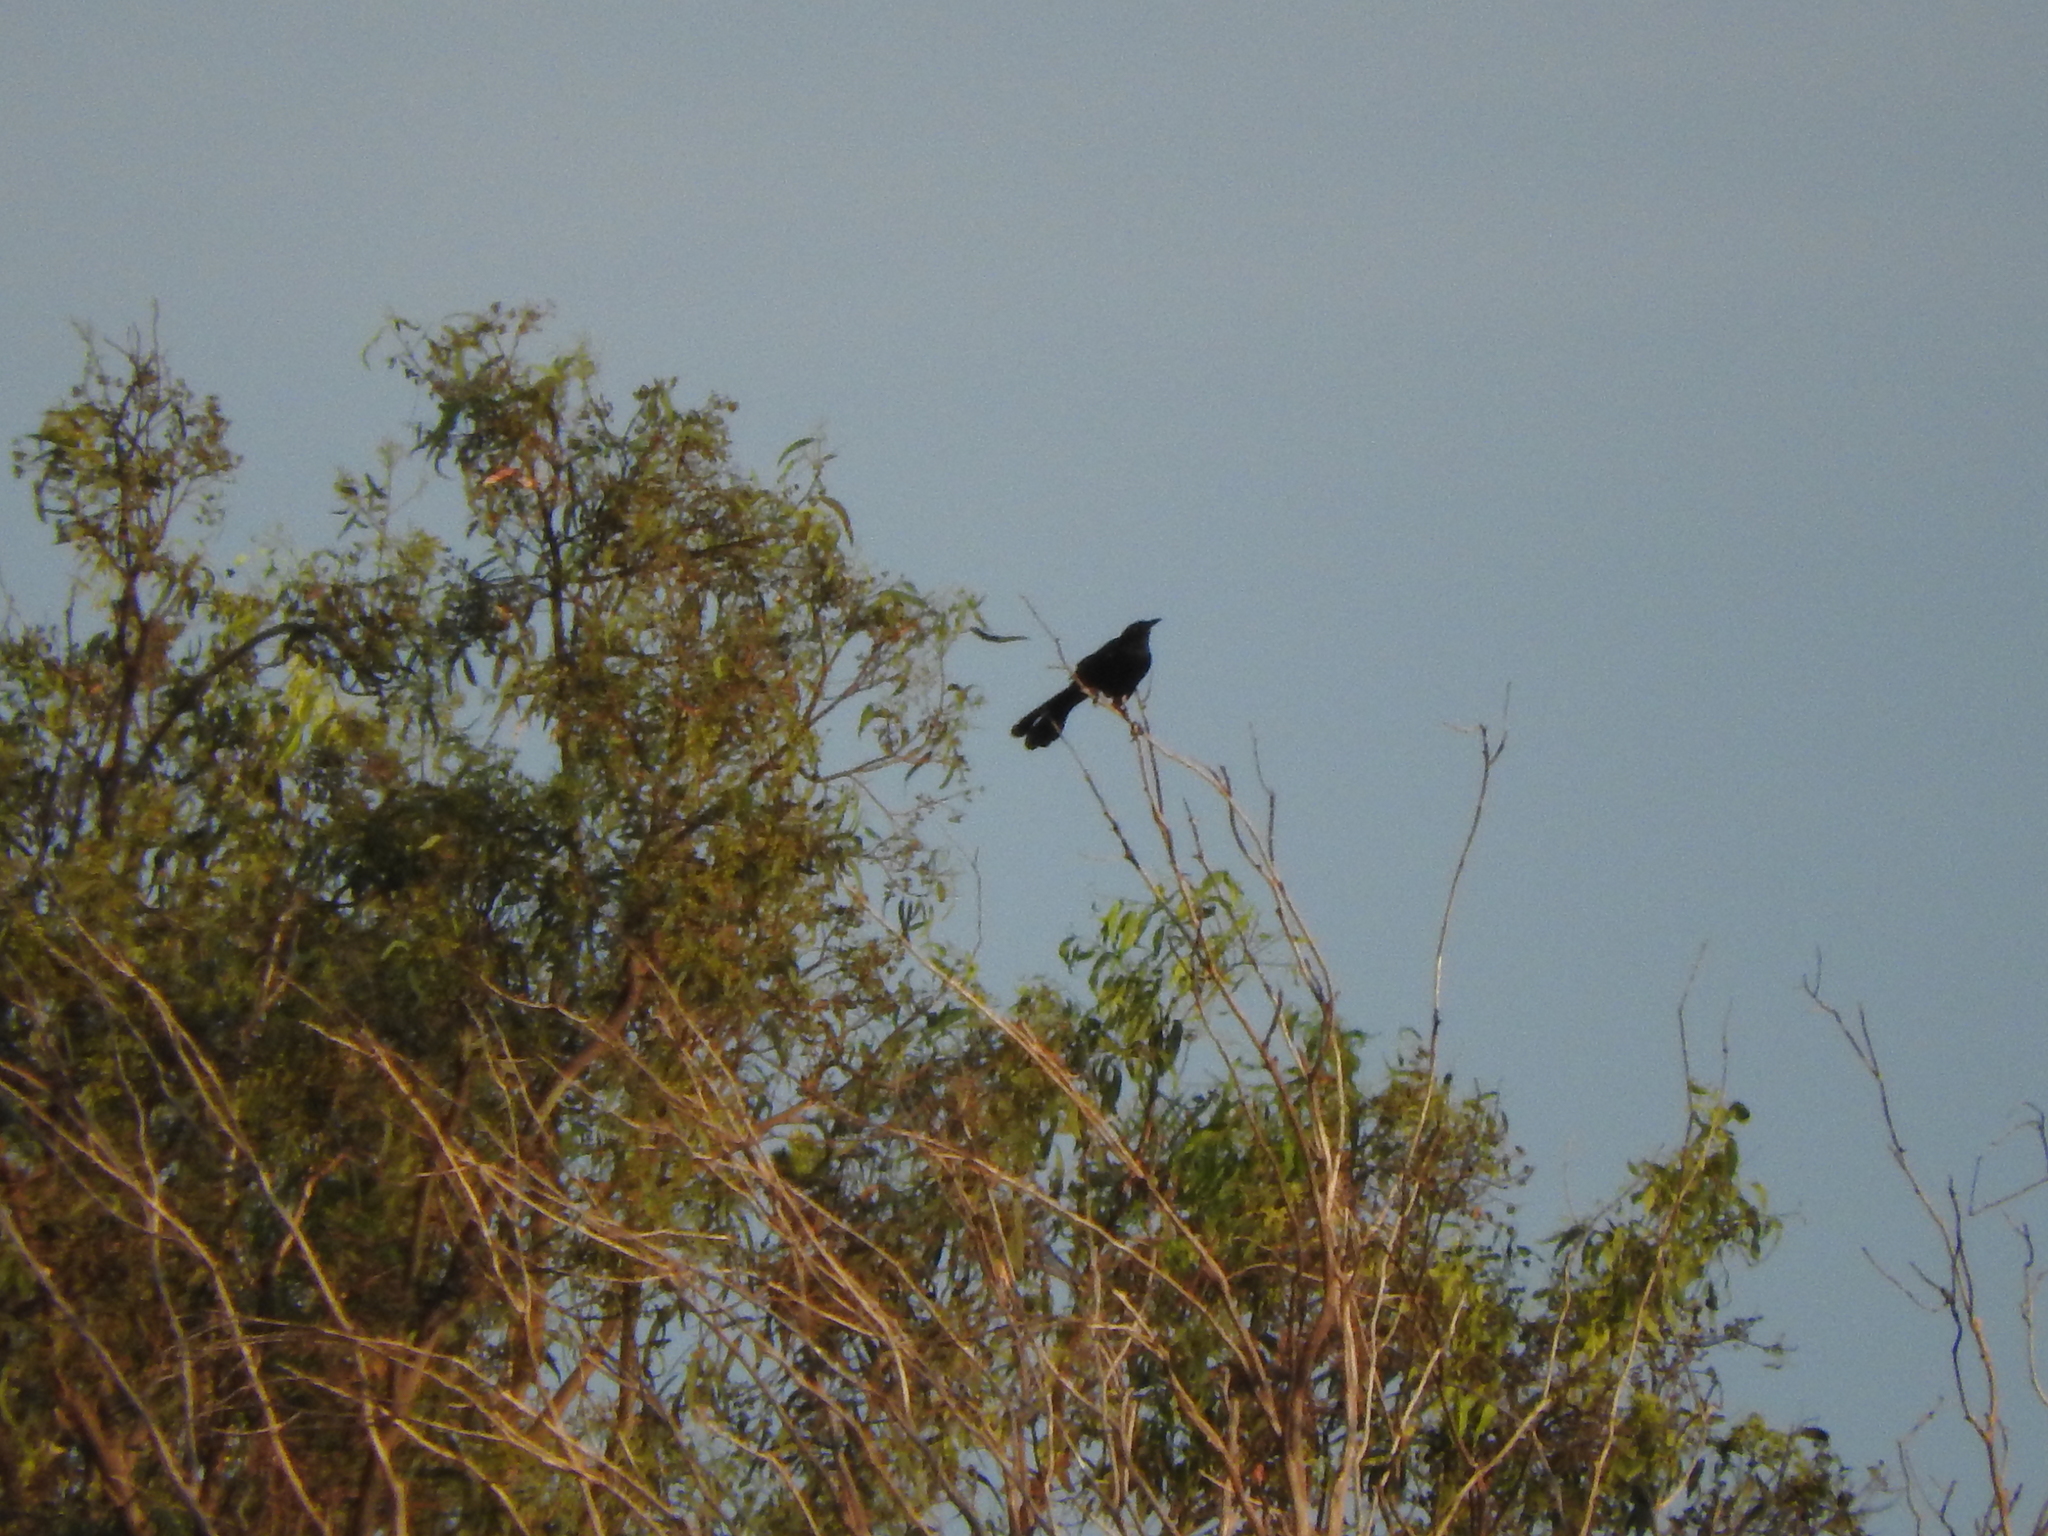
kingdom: Animalia
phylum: Chordata
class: Aves
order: Passeriformes
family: Icteridae
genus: Quiscalus
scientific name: Quiscalus mexicanus
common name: Great-tailed grackle
